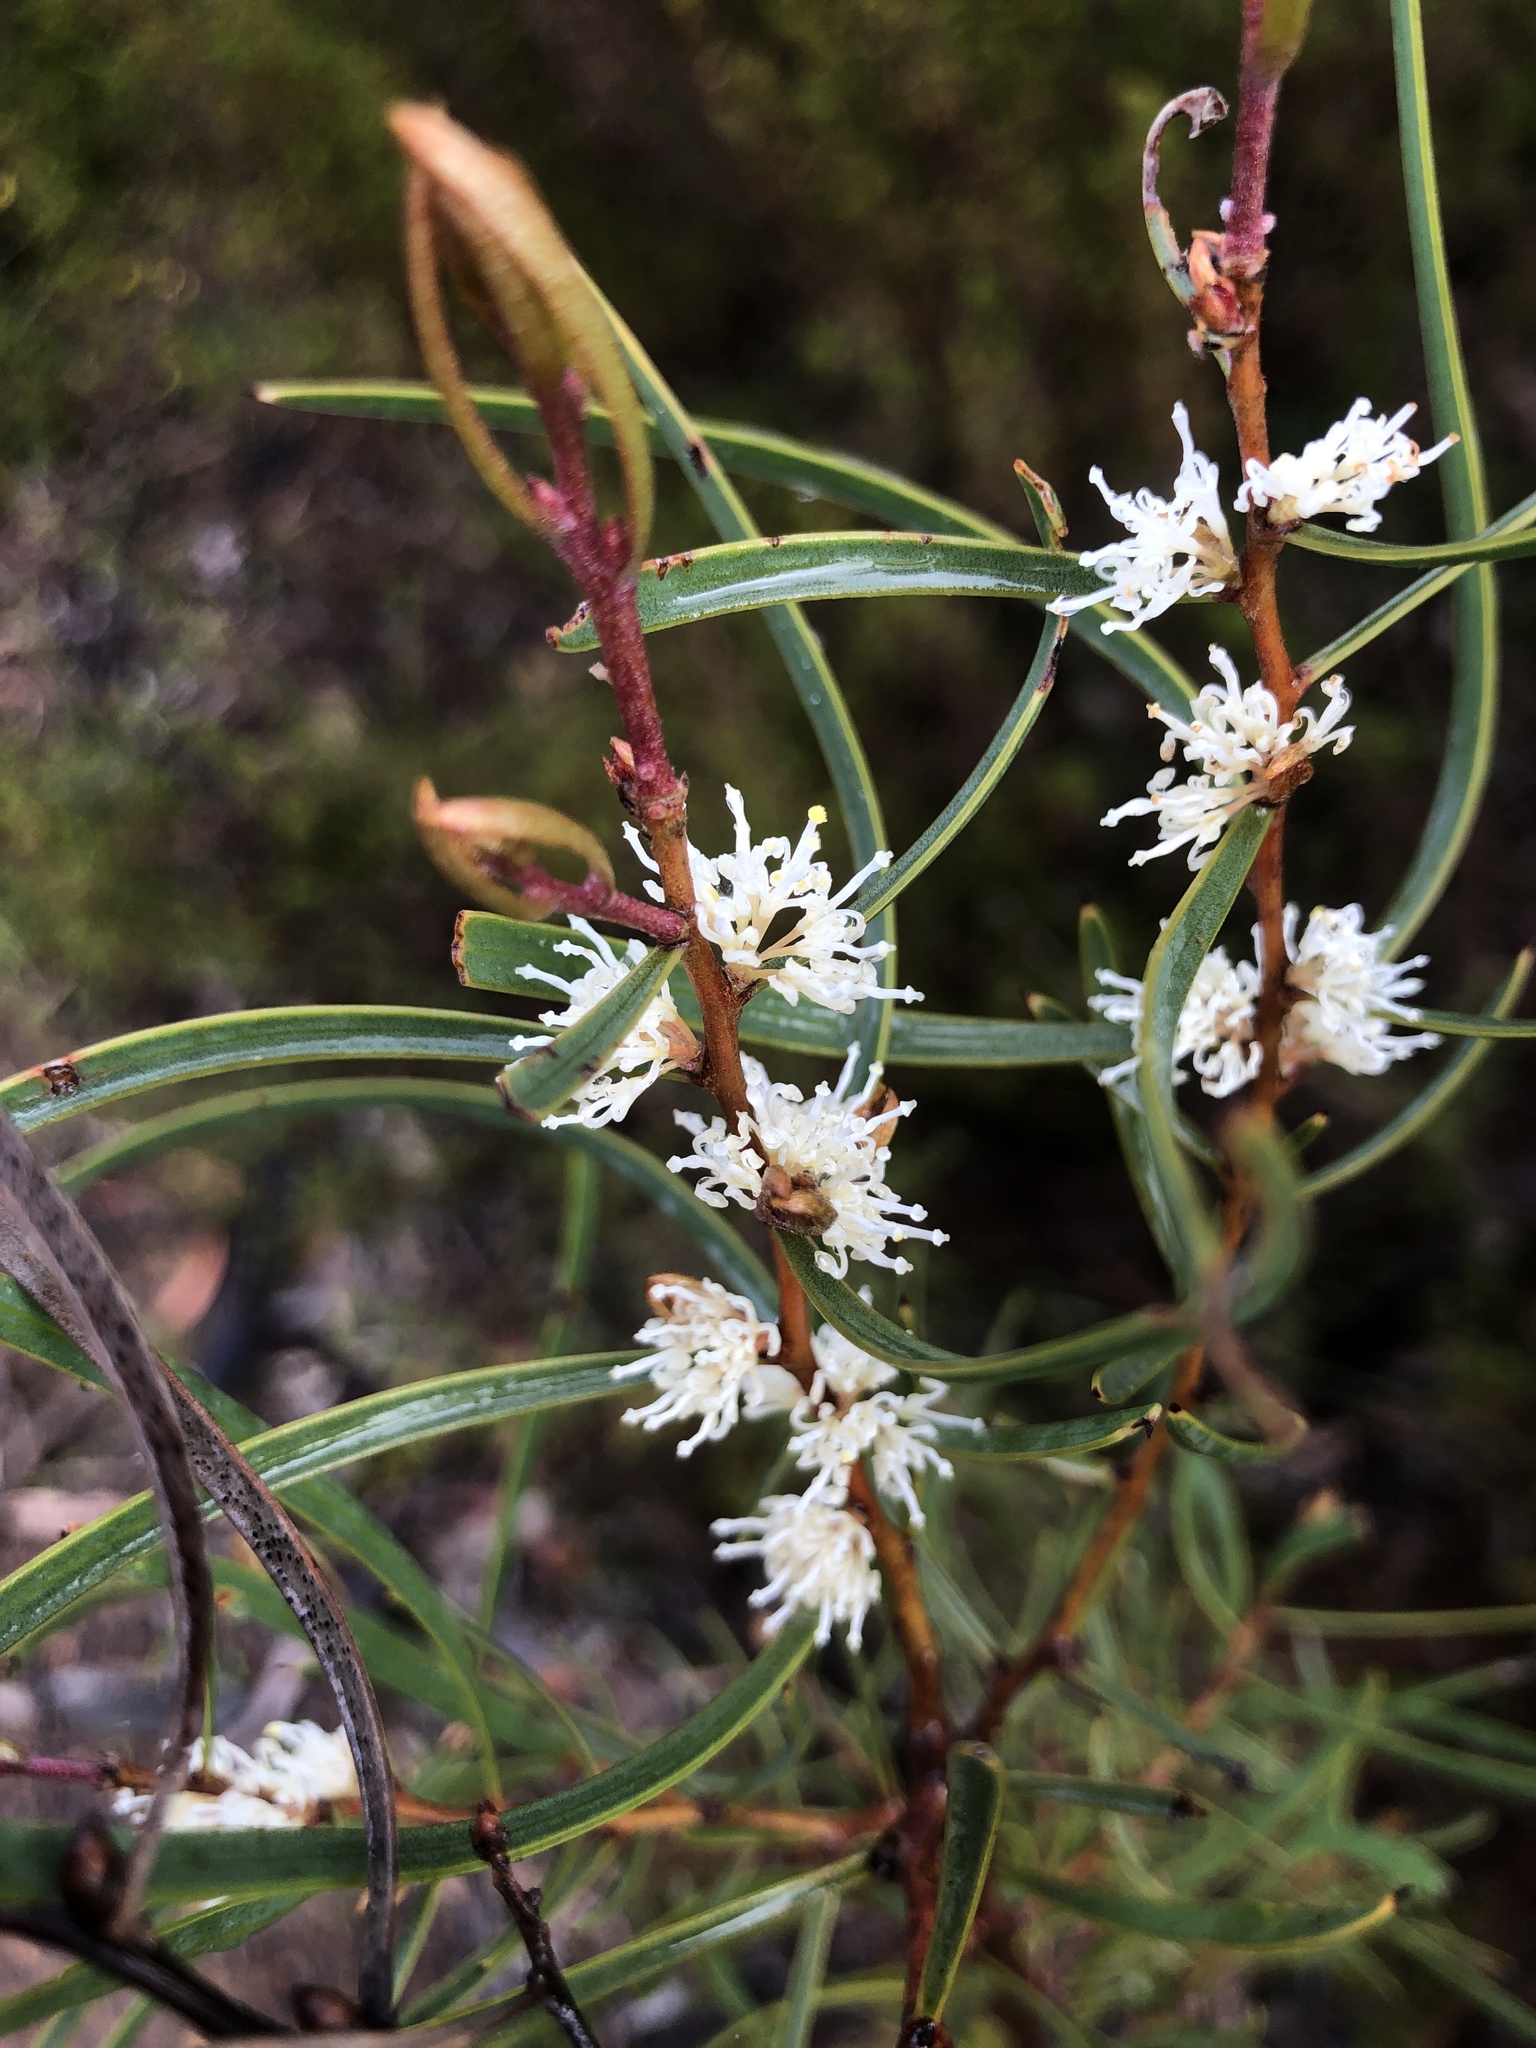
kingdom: Plantae
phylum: Tracheophyta
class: Magnoliopsida
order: Proteales
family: Proteaceae
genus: Hakea
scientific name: Hakea carinata
